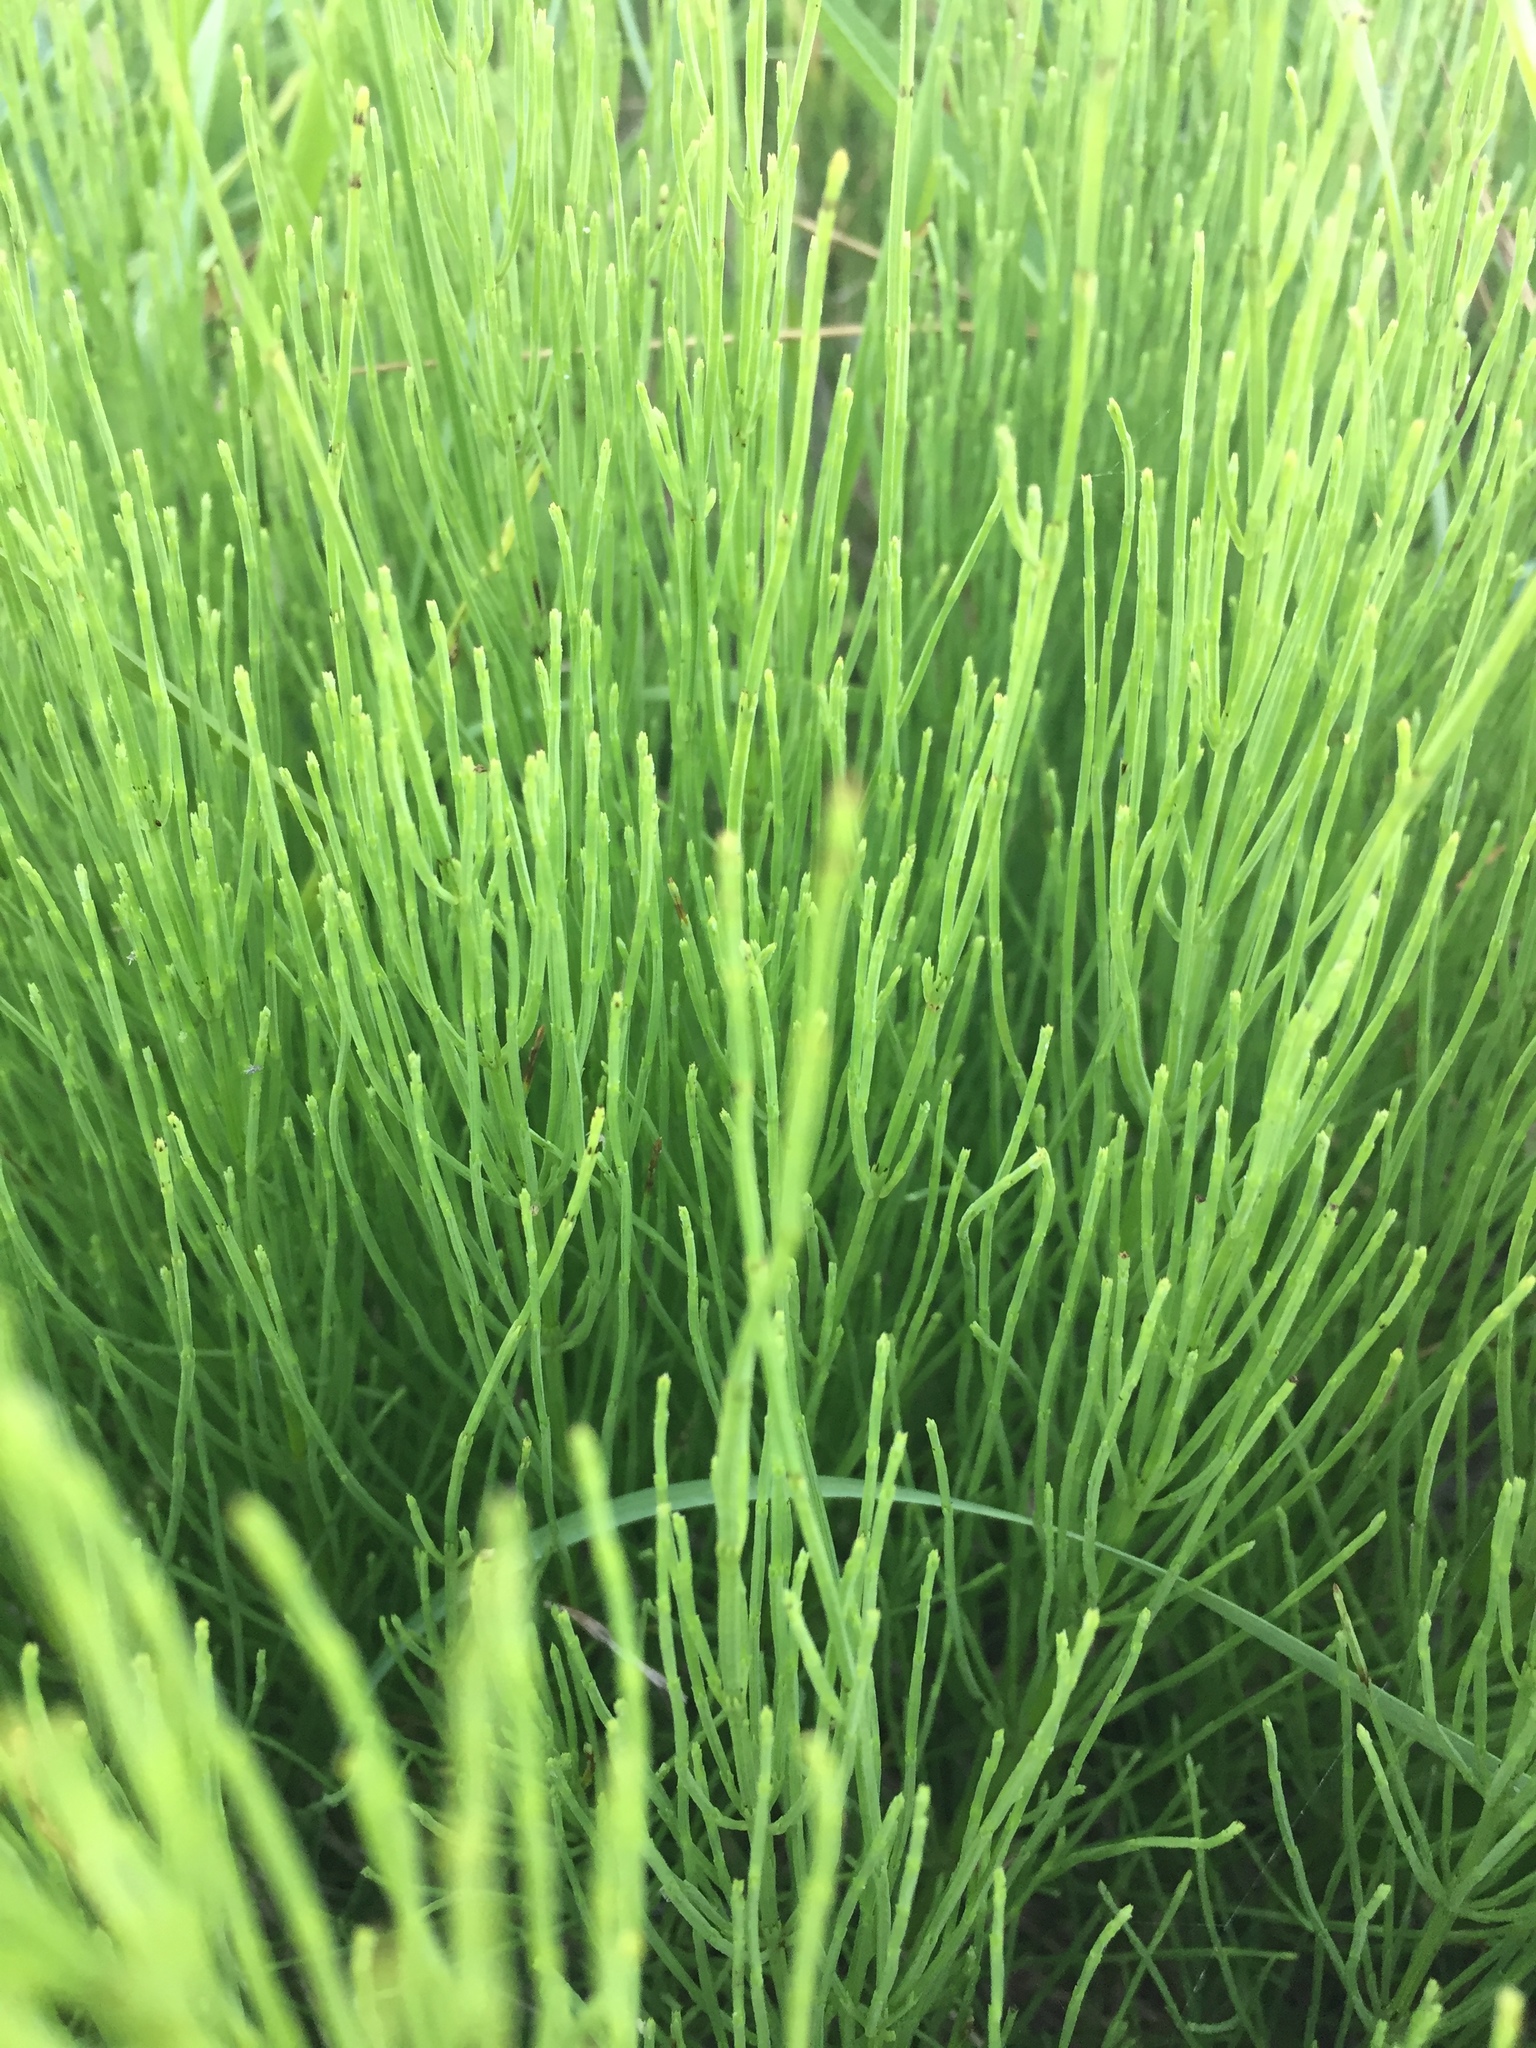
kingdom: Plantae
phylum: Tracheophyta
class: Polypodiopsida
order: Equisetales
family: Equisetaceae
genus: Equisetum
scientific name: Equisetum arvense
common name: Field horsetail
